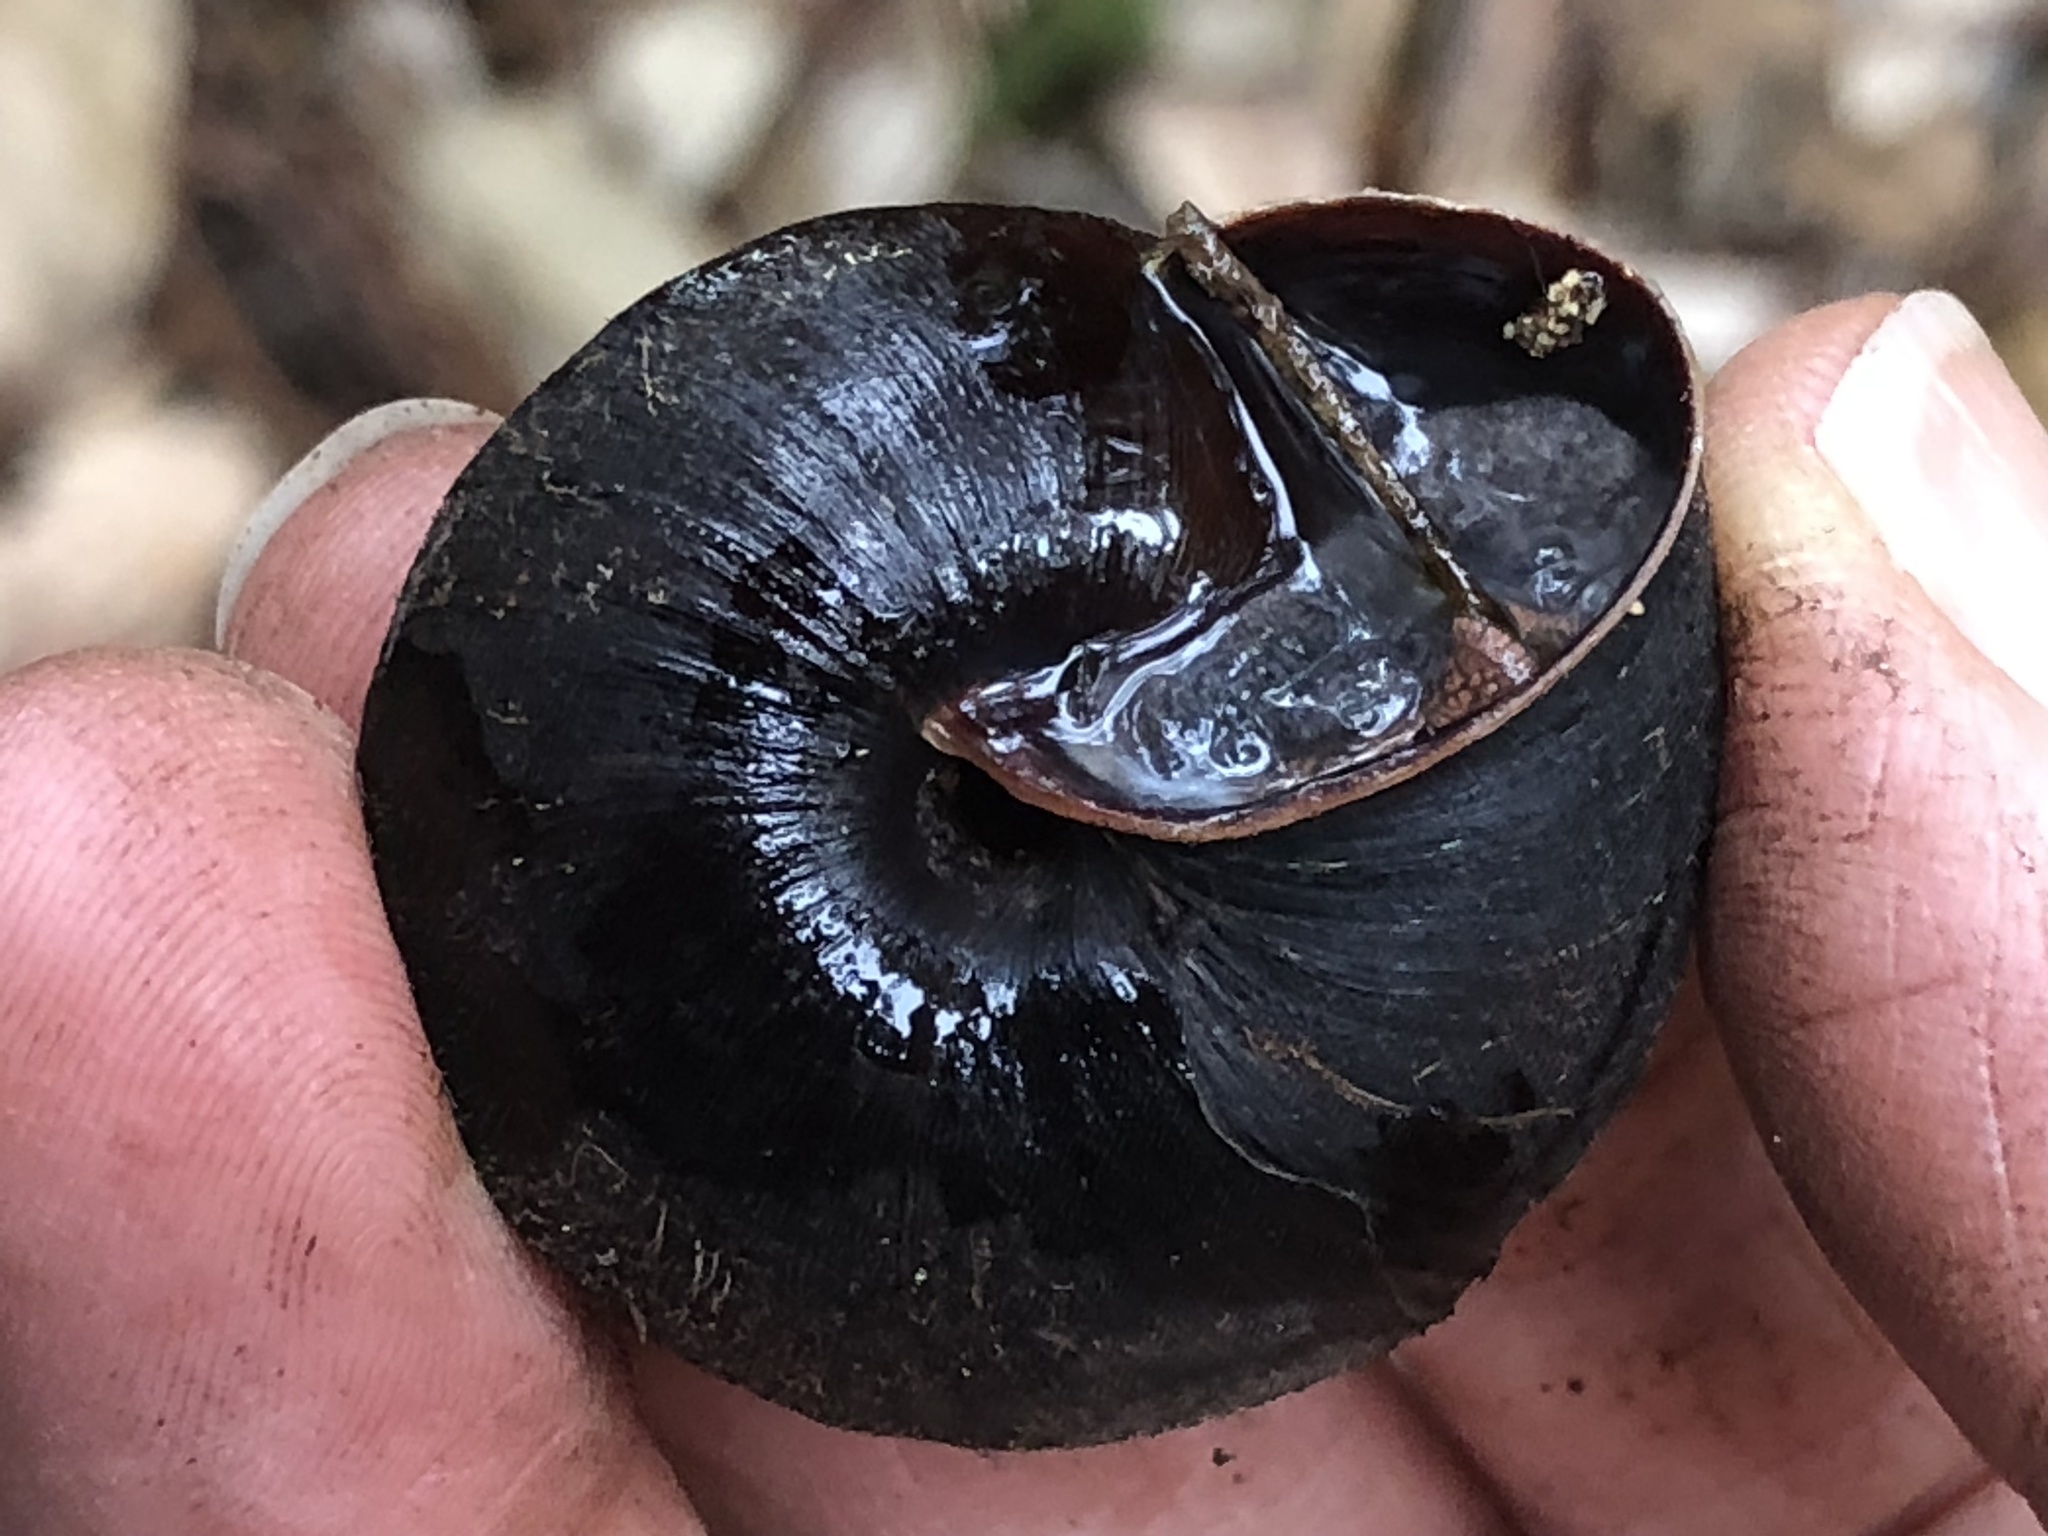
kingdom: Animalia
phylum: Mollusca
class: Gastropoda
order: Stylommatophora
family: Xanthonychidae
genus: Monadenia
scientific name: Monadenia infumata
